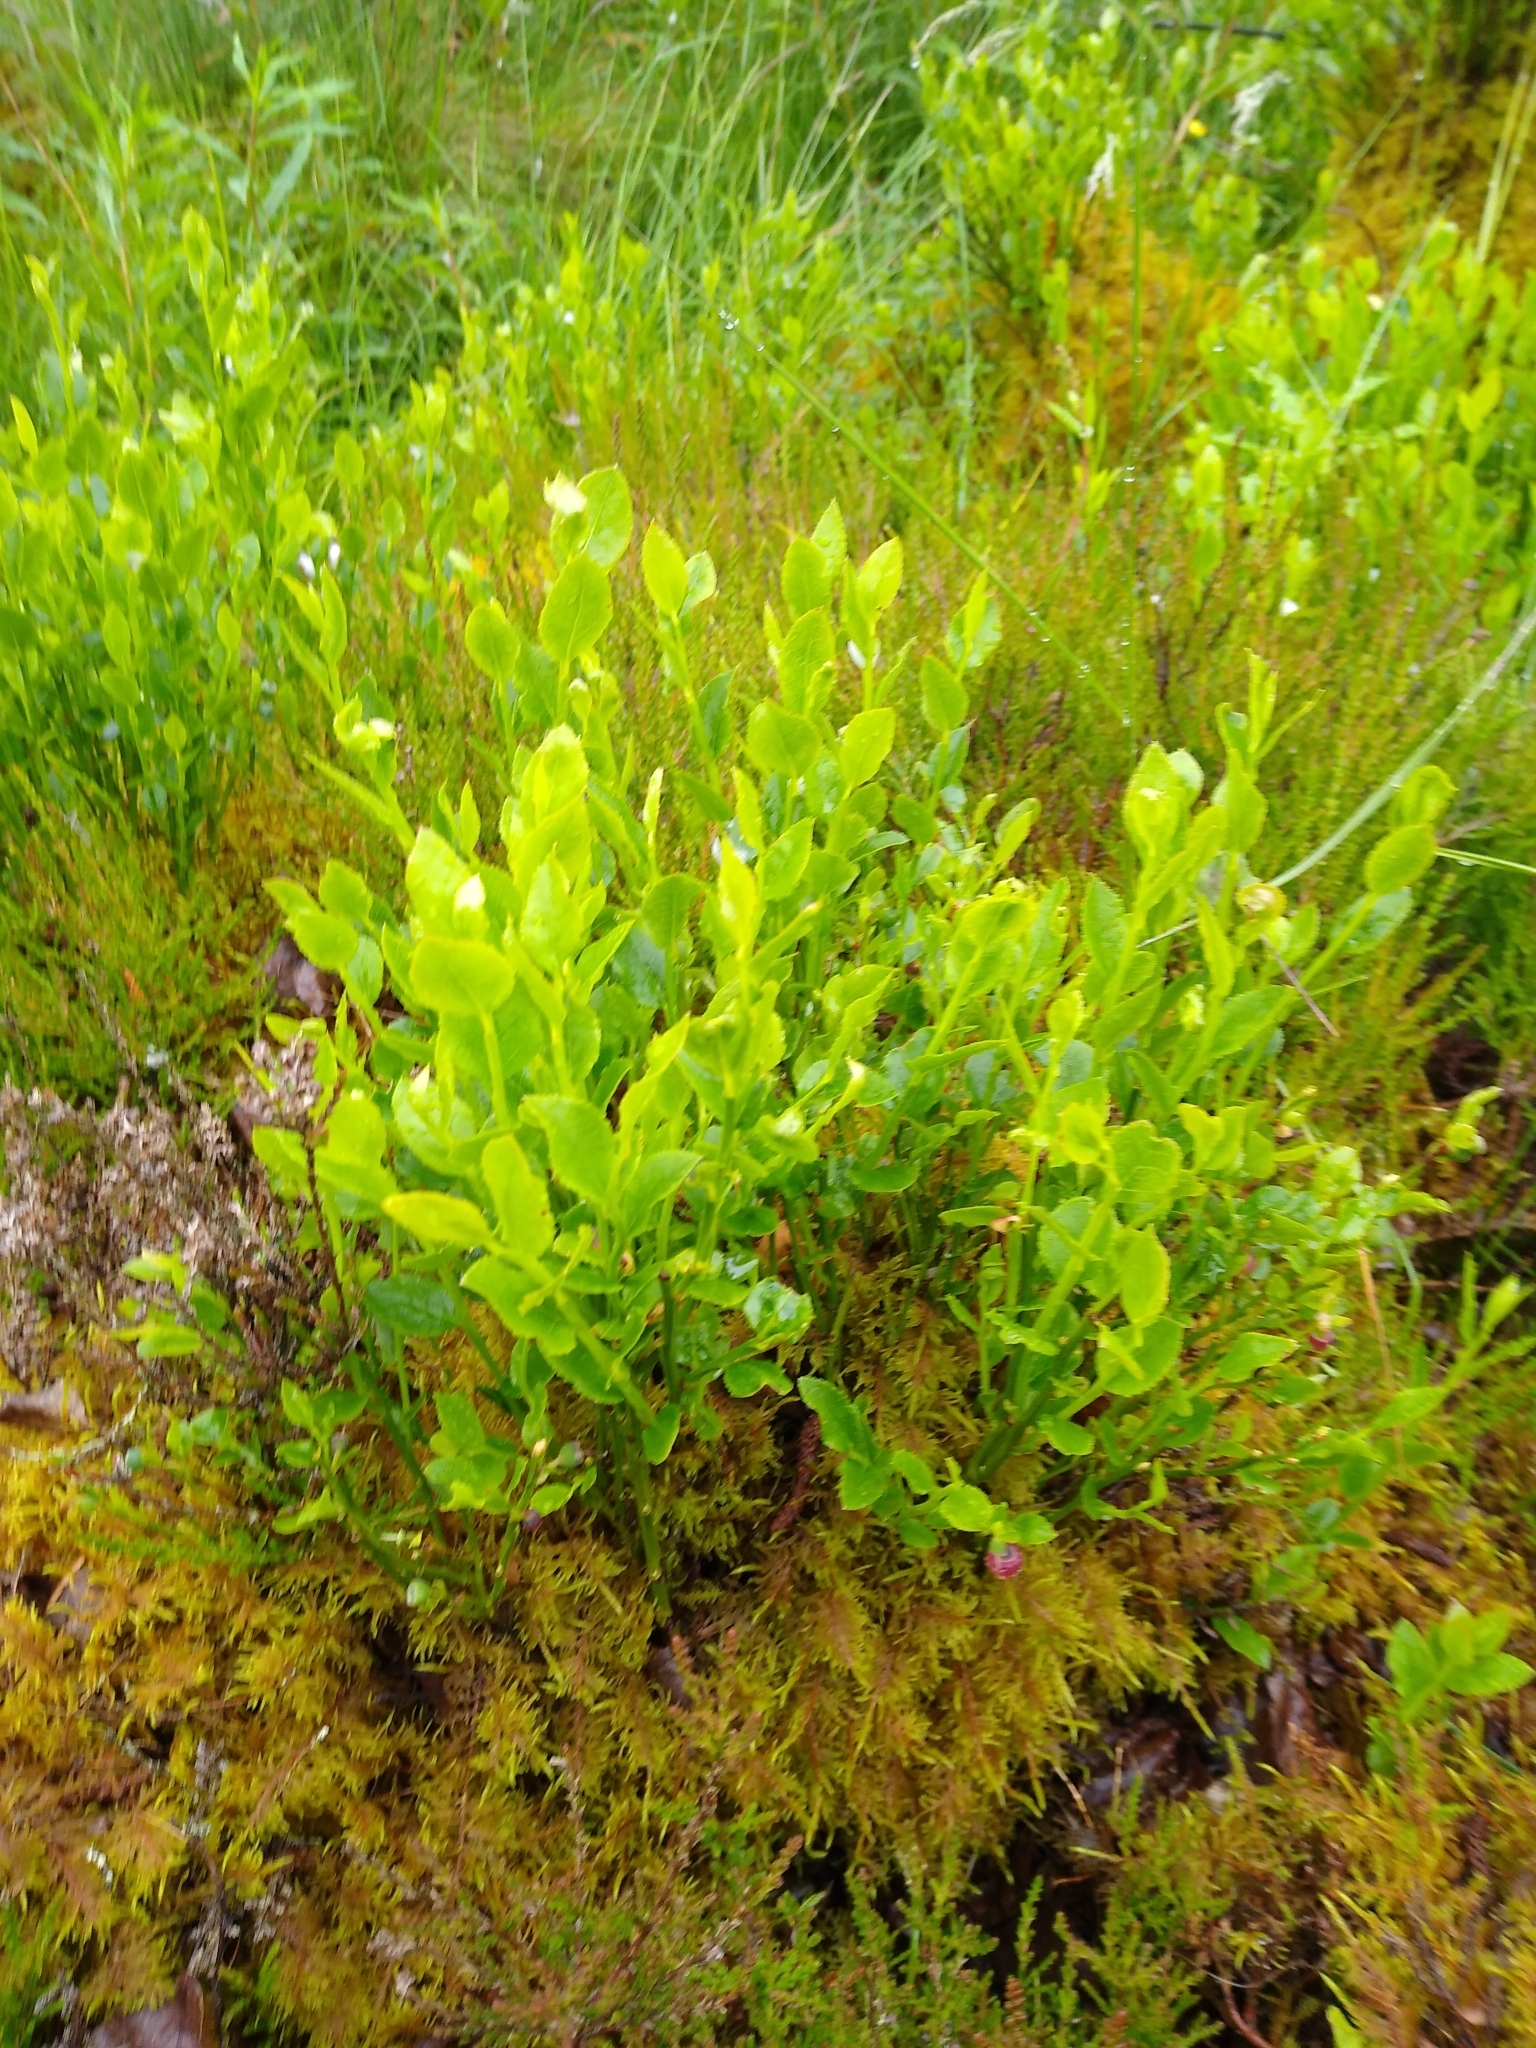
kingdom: Plantae
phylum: Tracheophyta
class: Magnoliopsida
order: Ericales
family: Ericaceae
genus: Vaccinium
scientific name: Vaccinium myrtillus
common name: Bilberry
